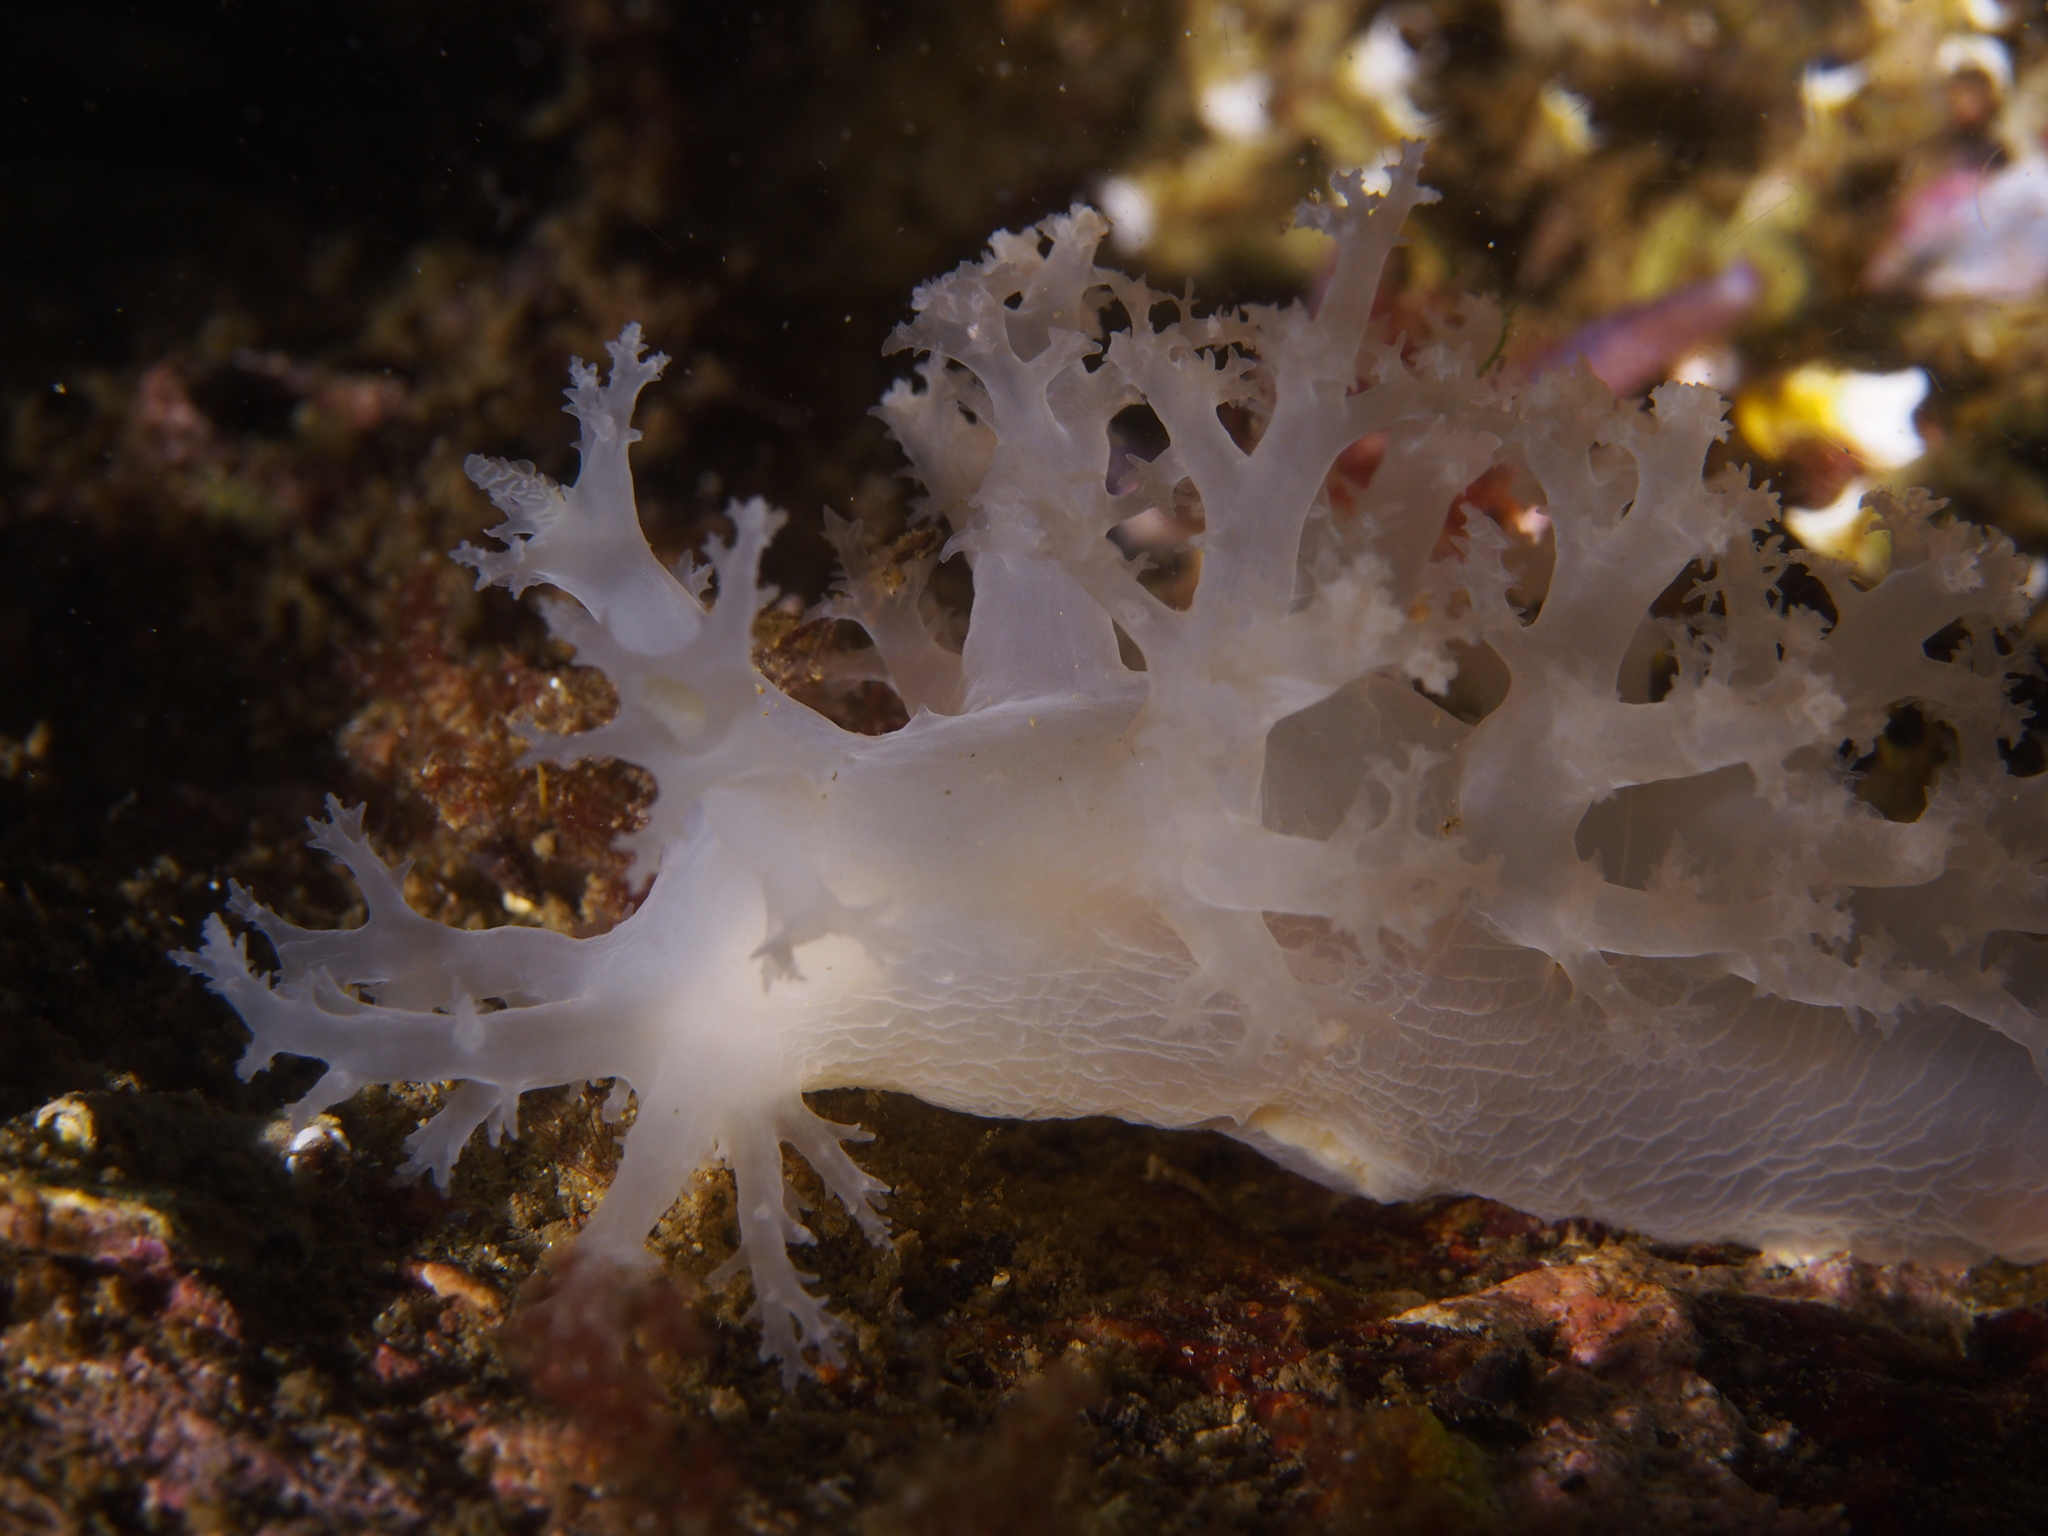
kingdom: Animalia
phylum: Mollusca
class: Gastropoda
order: Nudibranchia
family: Dendronotidae
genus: Dendronotus
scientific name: Dendronotus lacteus
